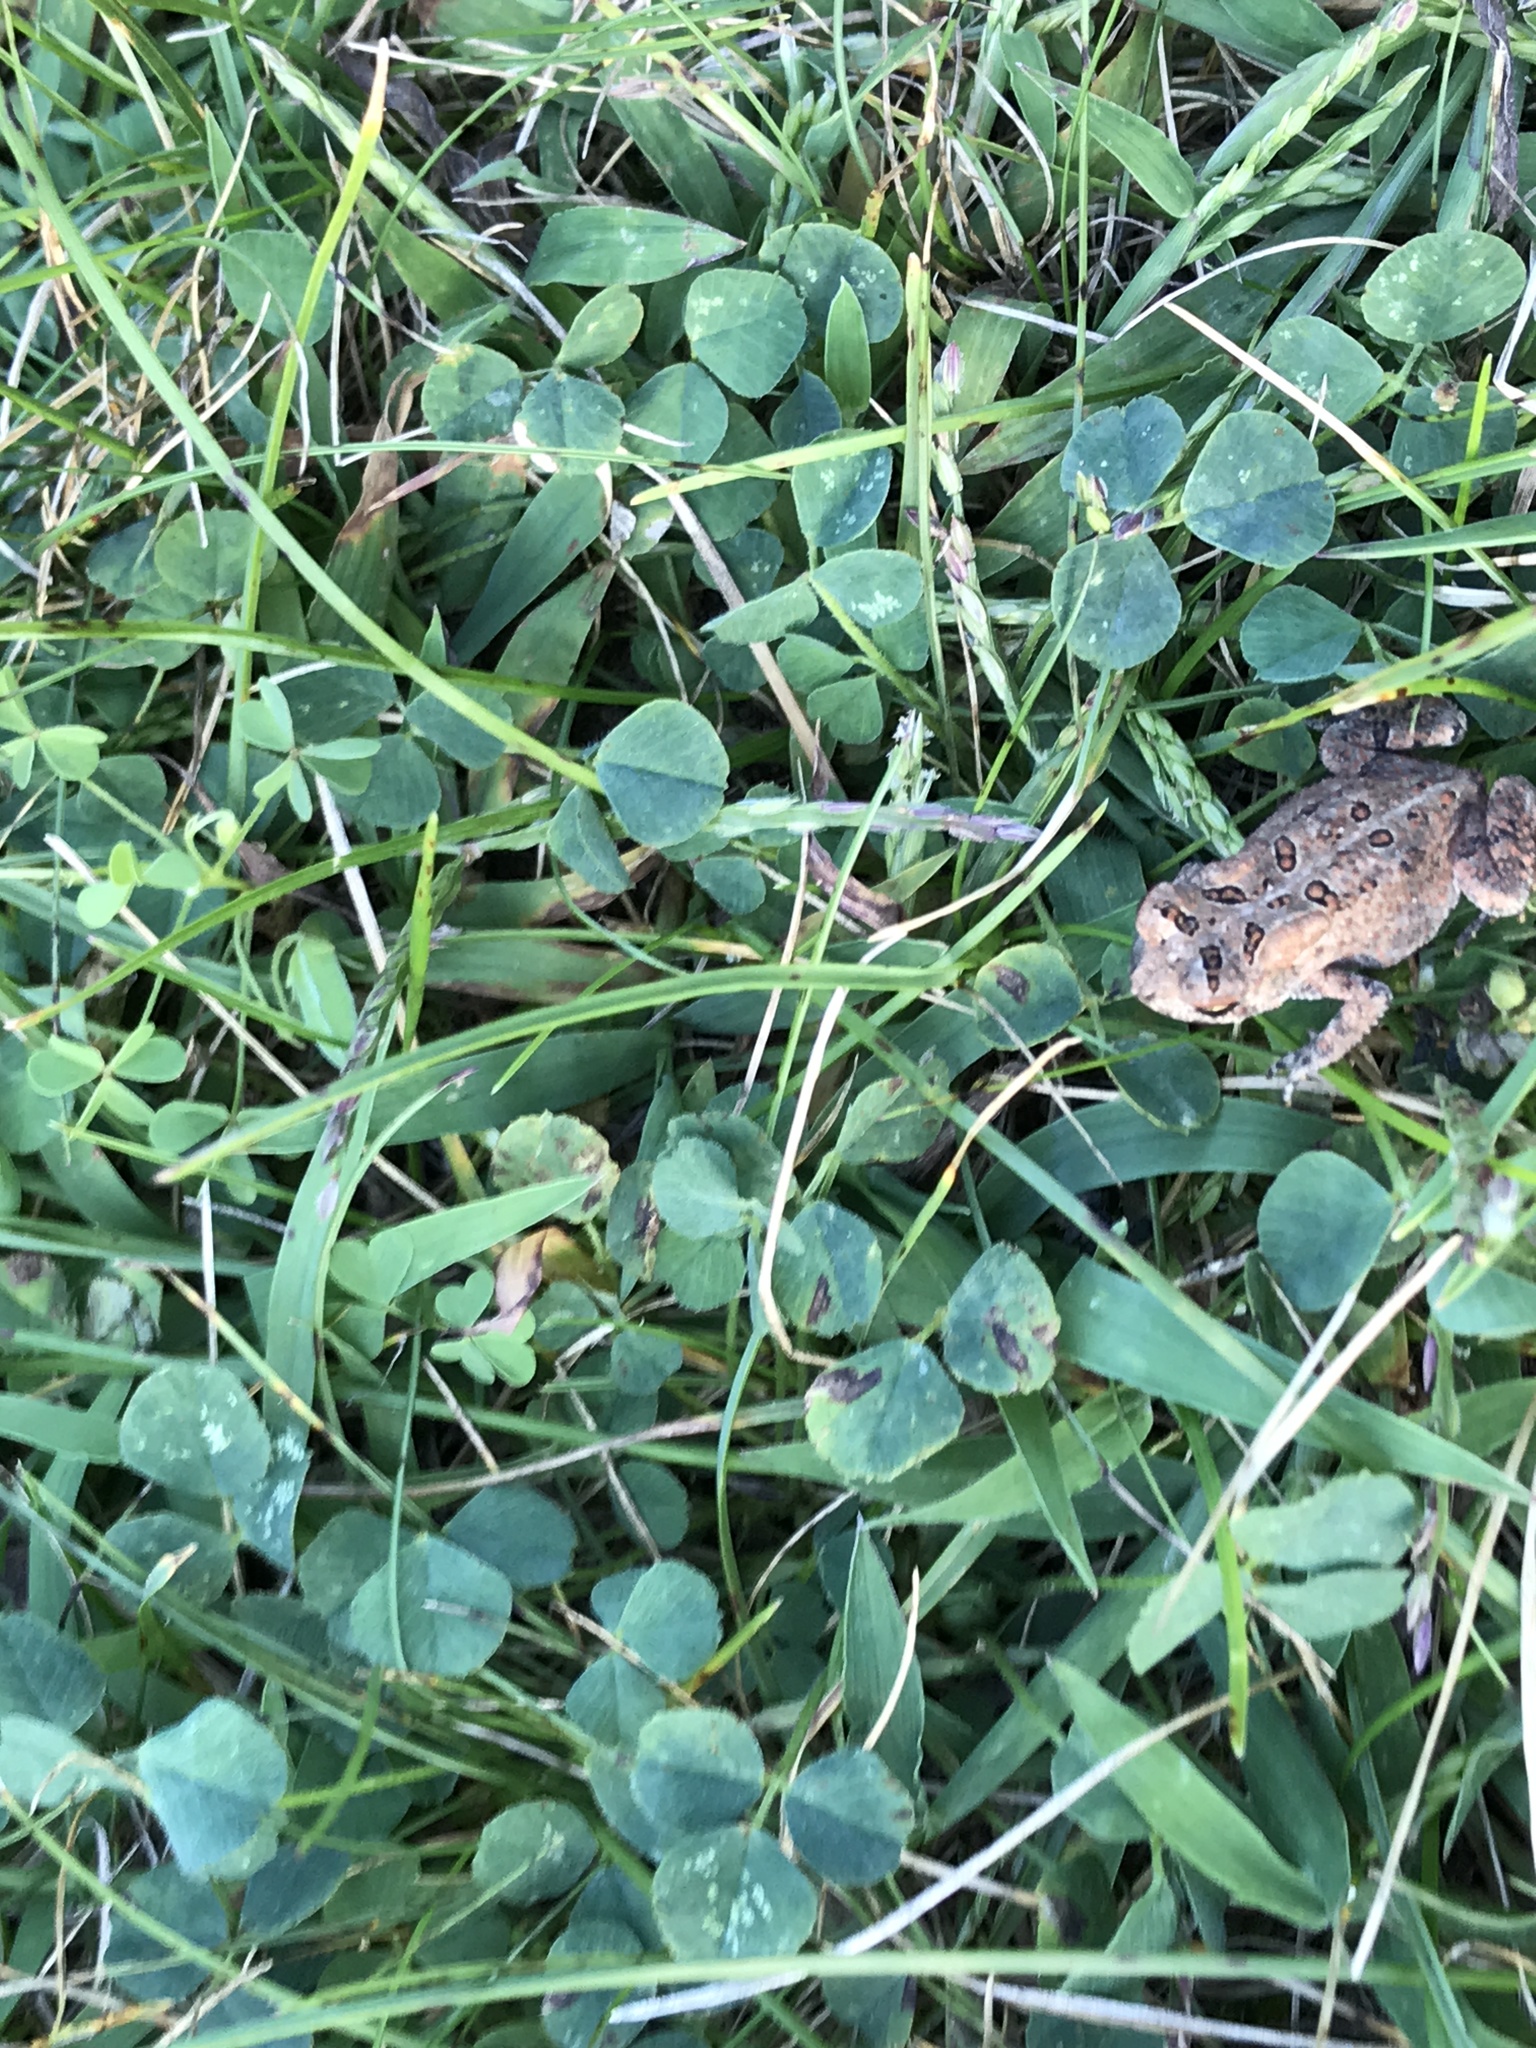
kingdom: Animalia
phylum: Chordata
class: Amphibia
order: Anura
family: Bufonidae
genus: Anaxyrus
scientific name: Anaxyrus americanus
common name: American toad
